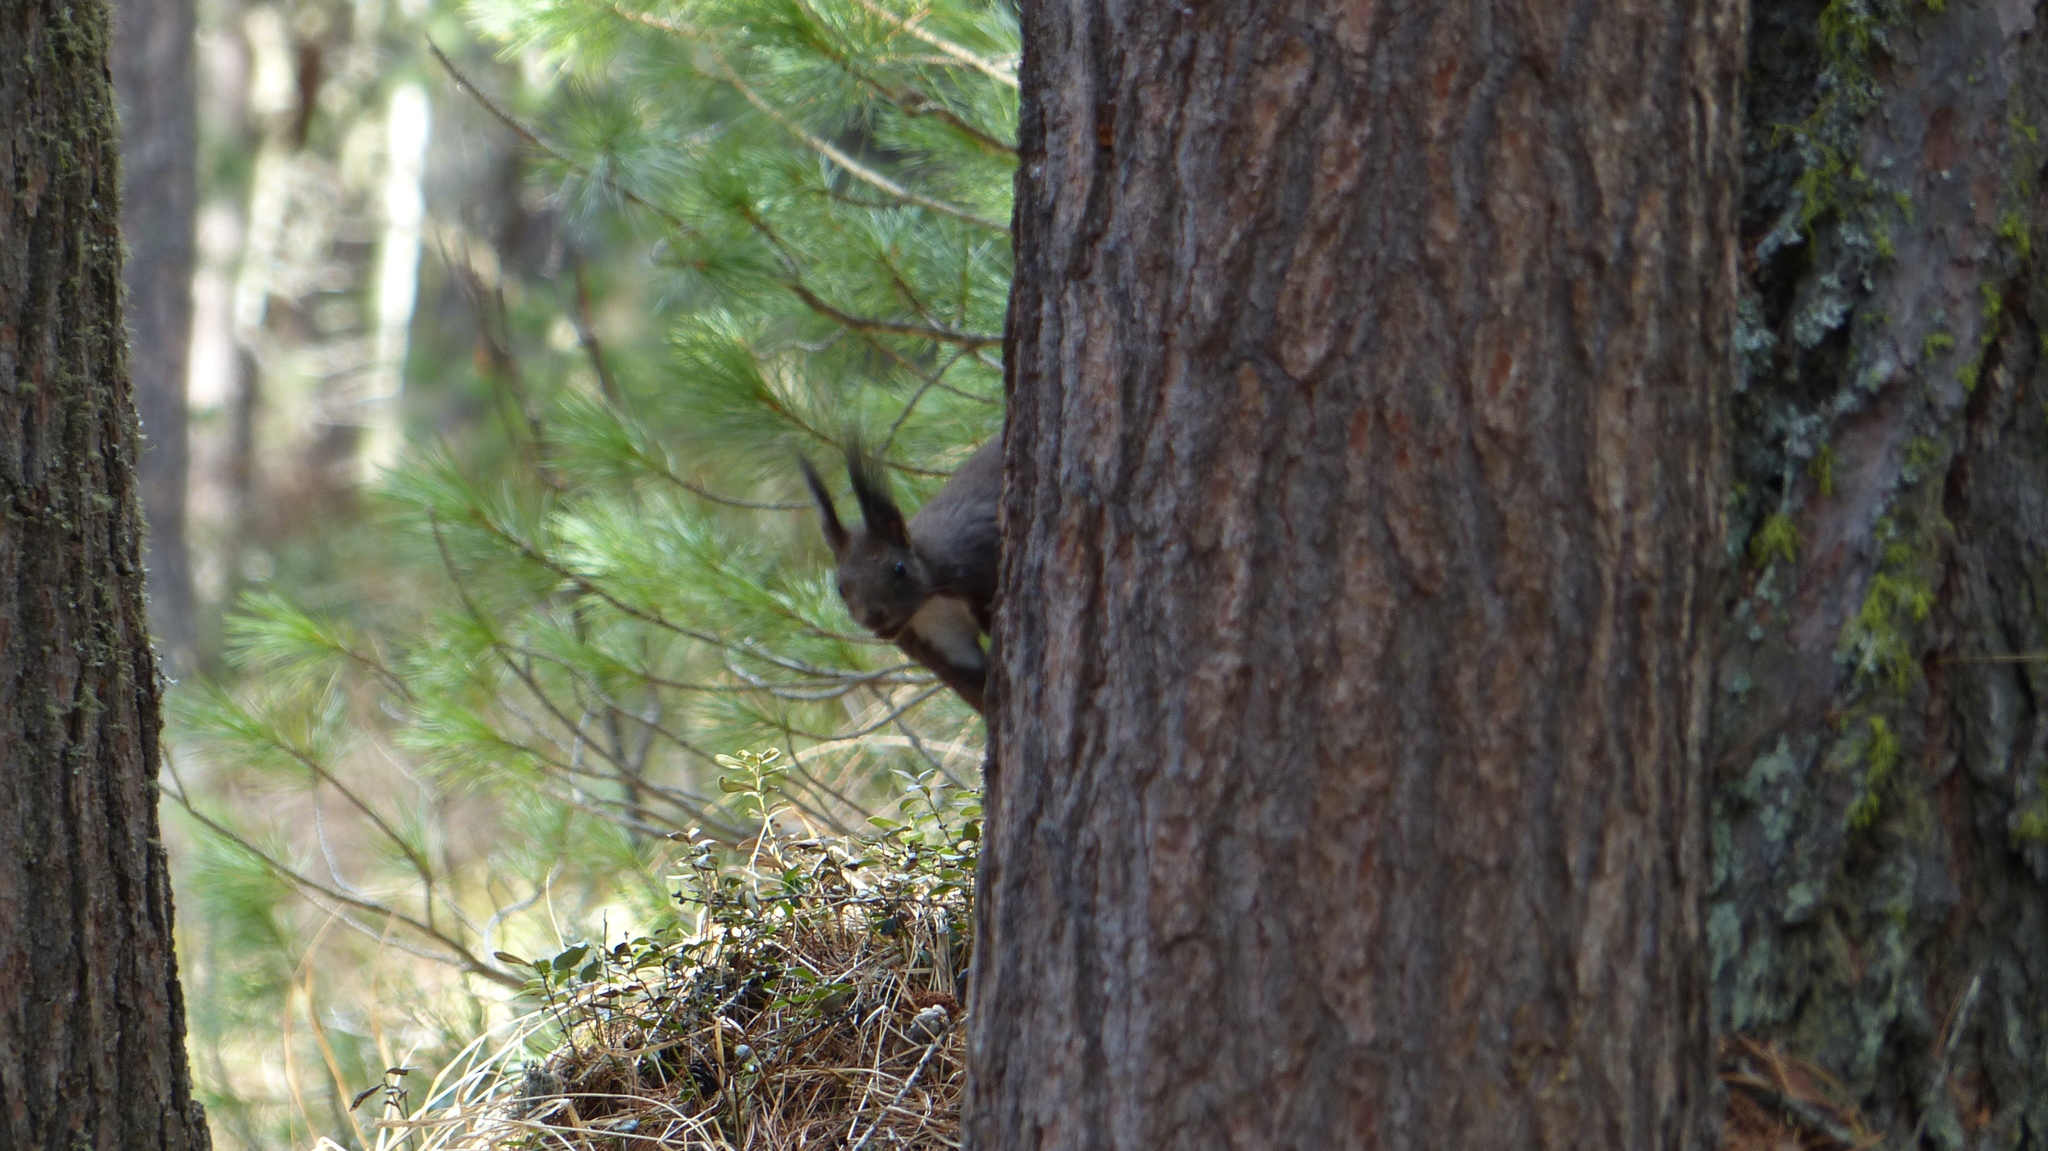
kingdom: Animalia
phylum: Chordata
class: Mammalia
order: Rodentia
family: Sciuridae
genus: Sciurus
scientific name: Sciurus vulgaris
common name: Eurasian red squirrel
